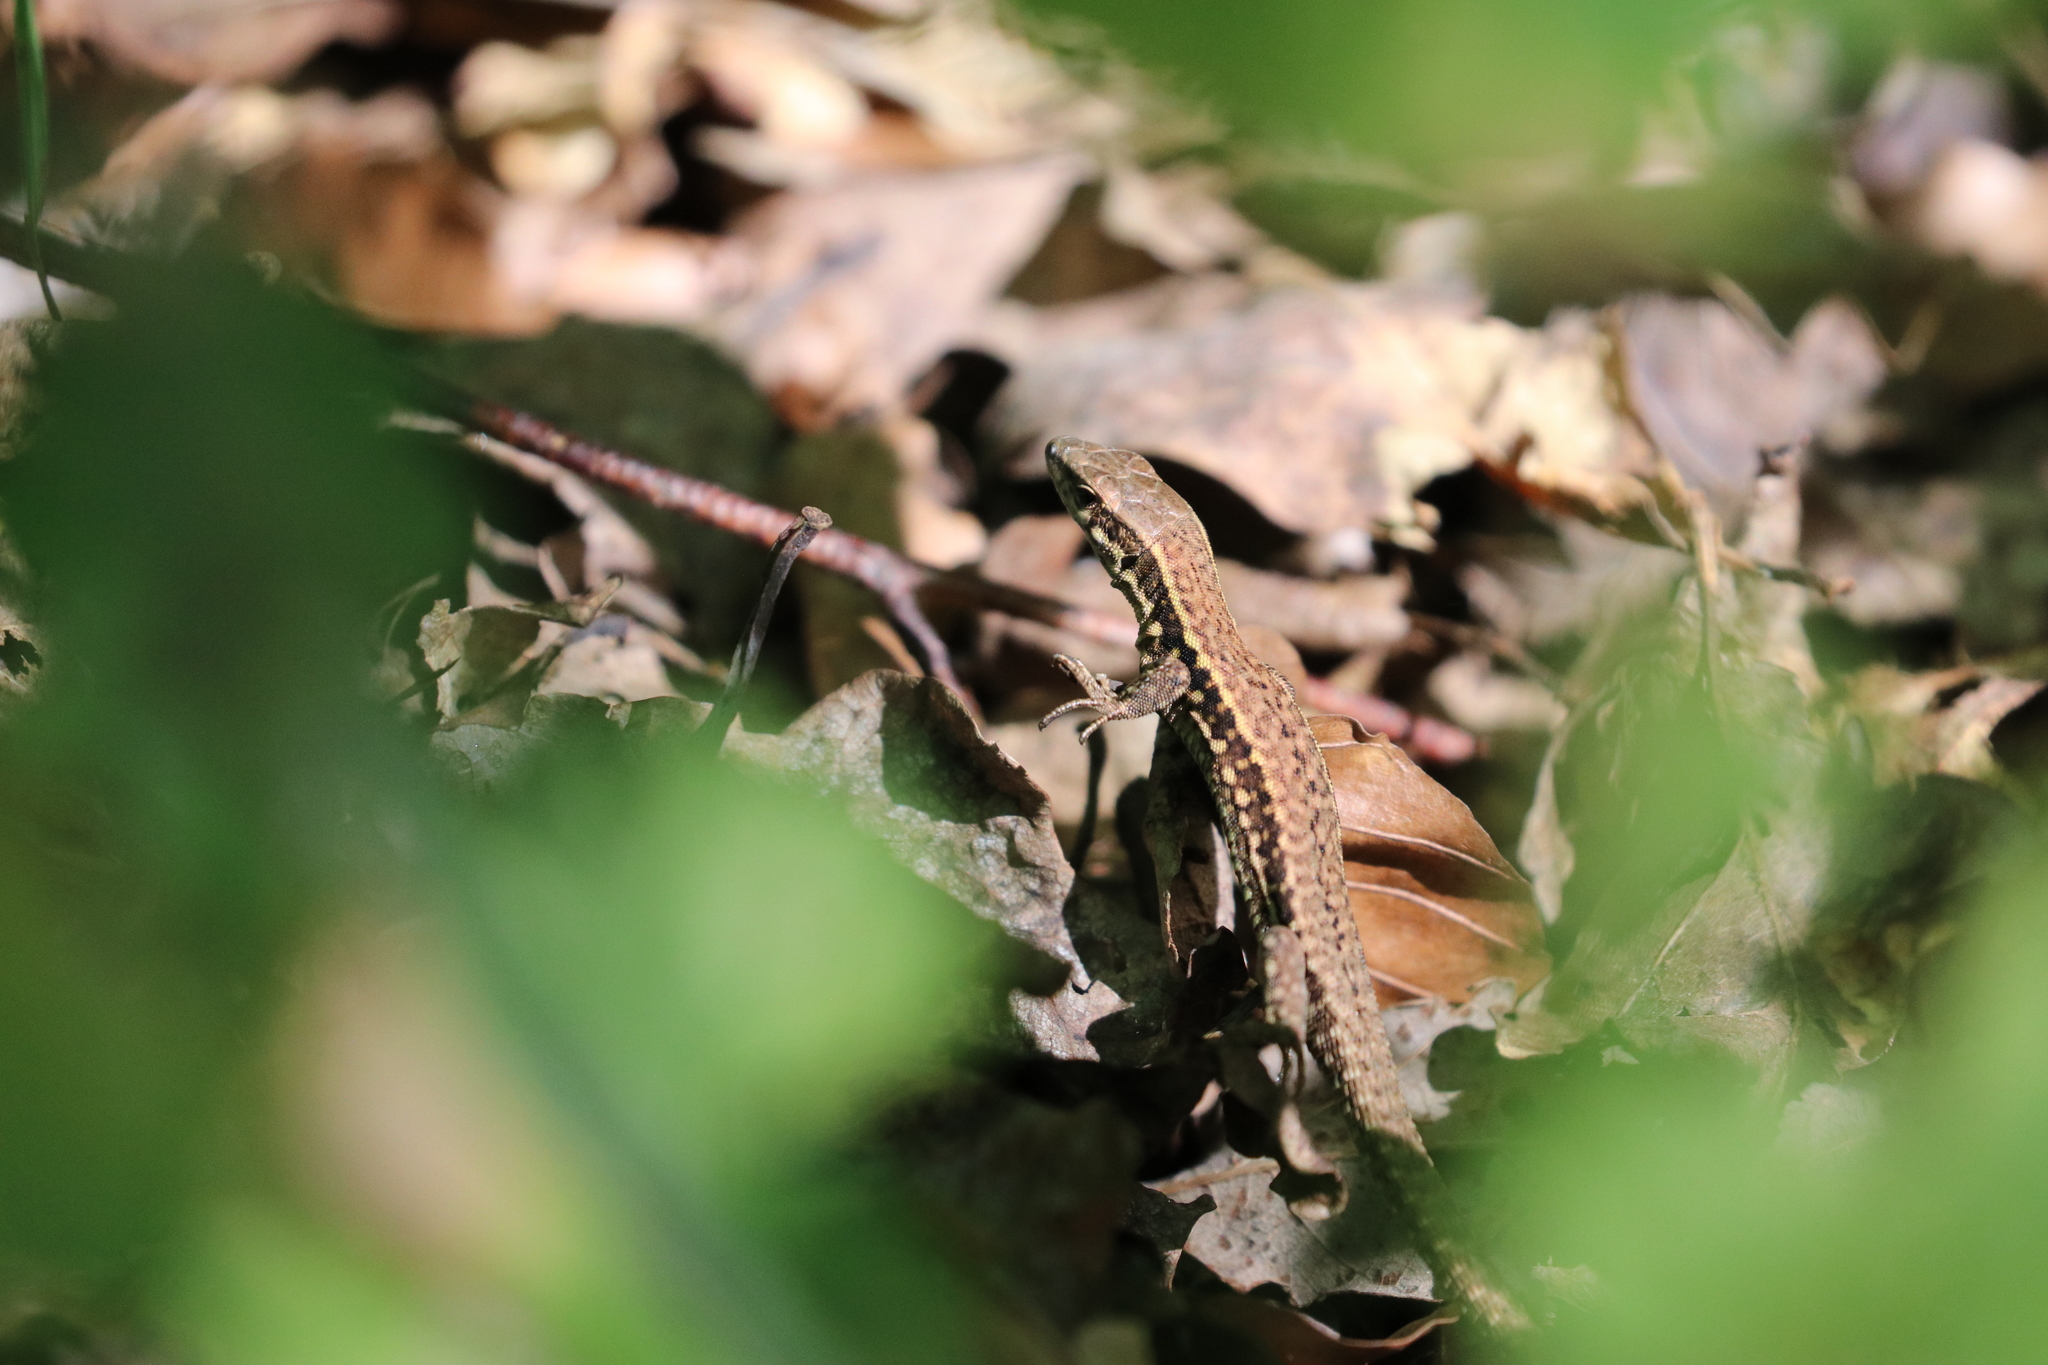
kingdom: Animalia
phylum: Chordata
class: Squamata
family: Lacertidae
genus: Podarcis
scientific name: Podarcis muralis
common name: Common wall lizard
